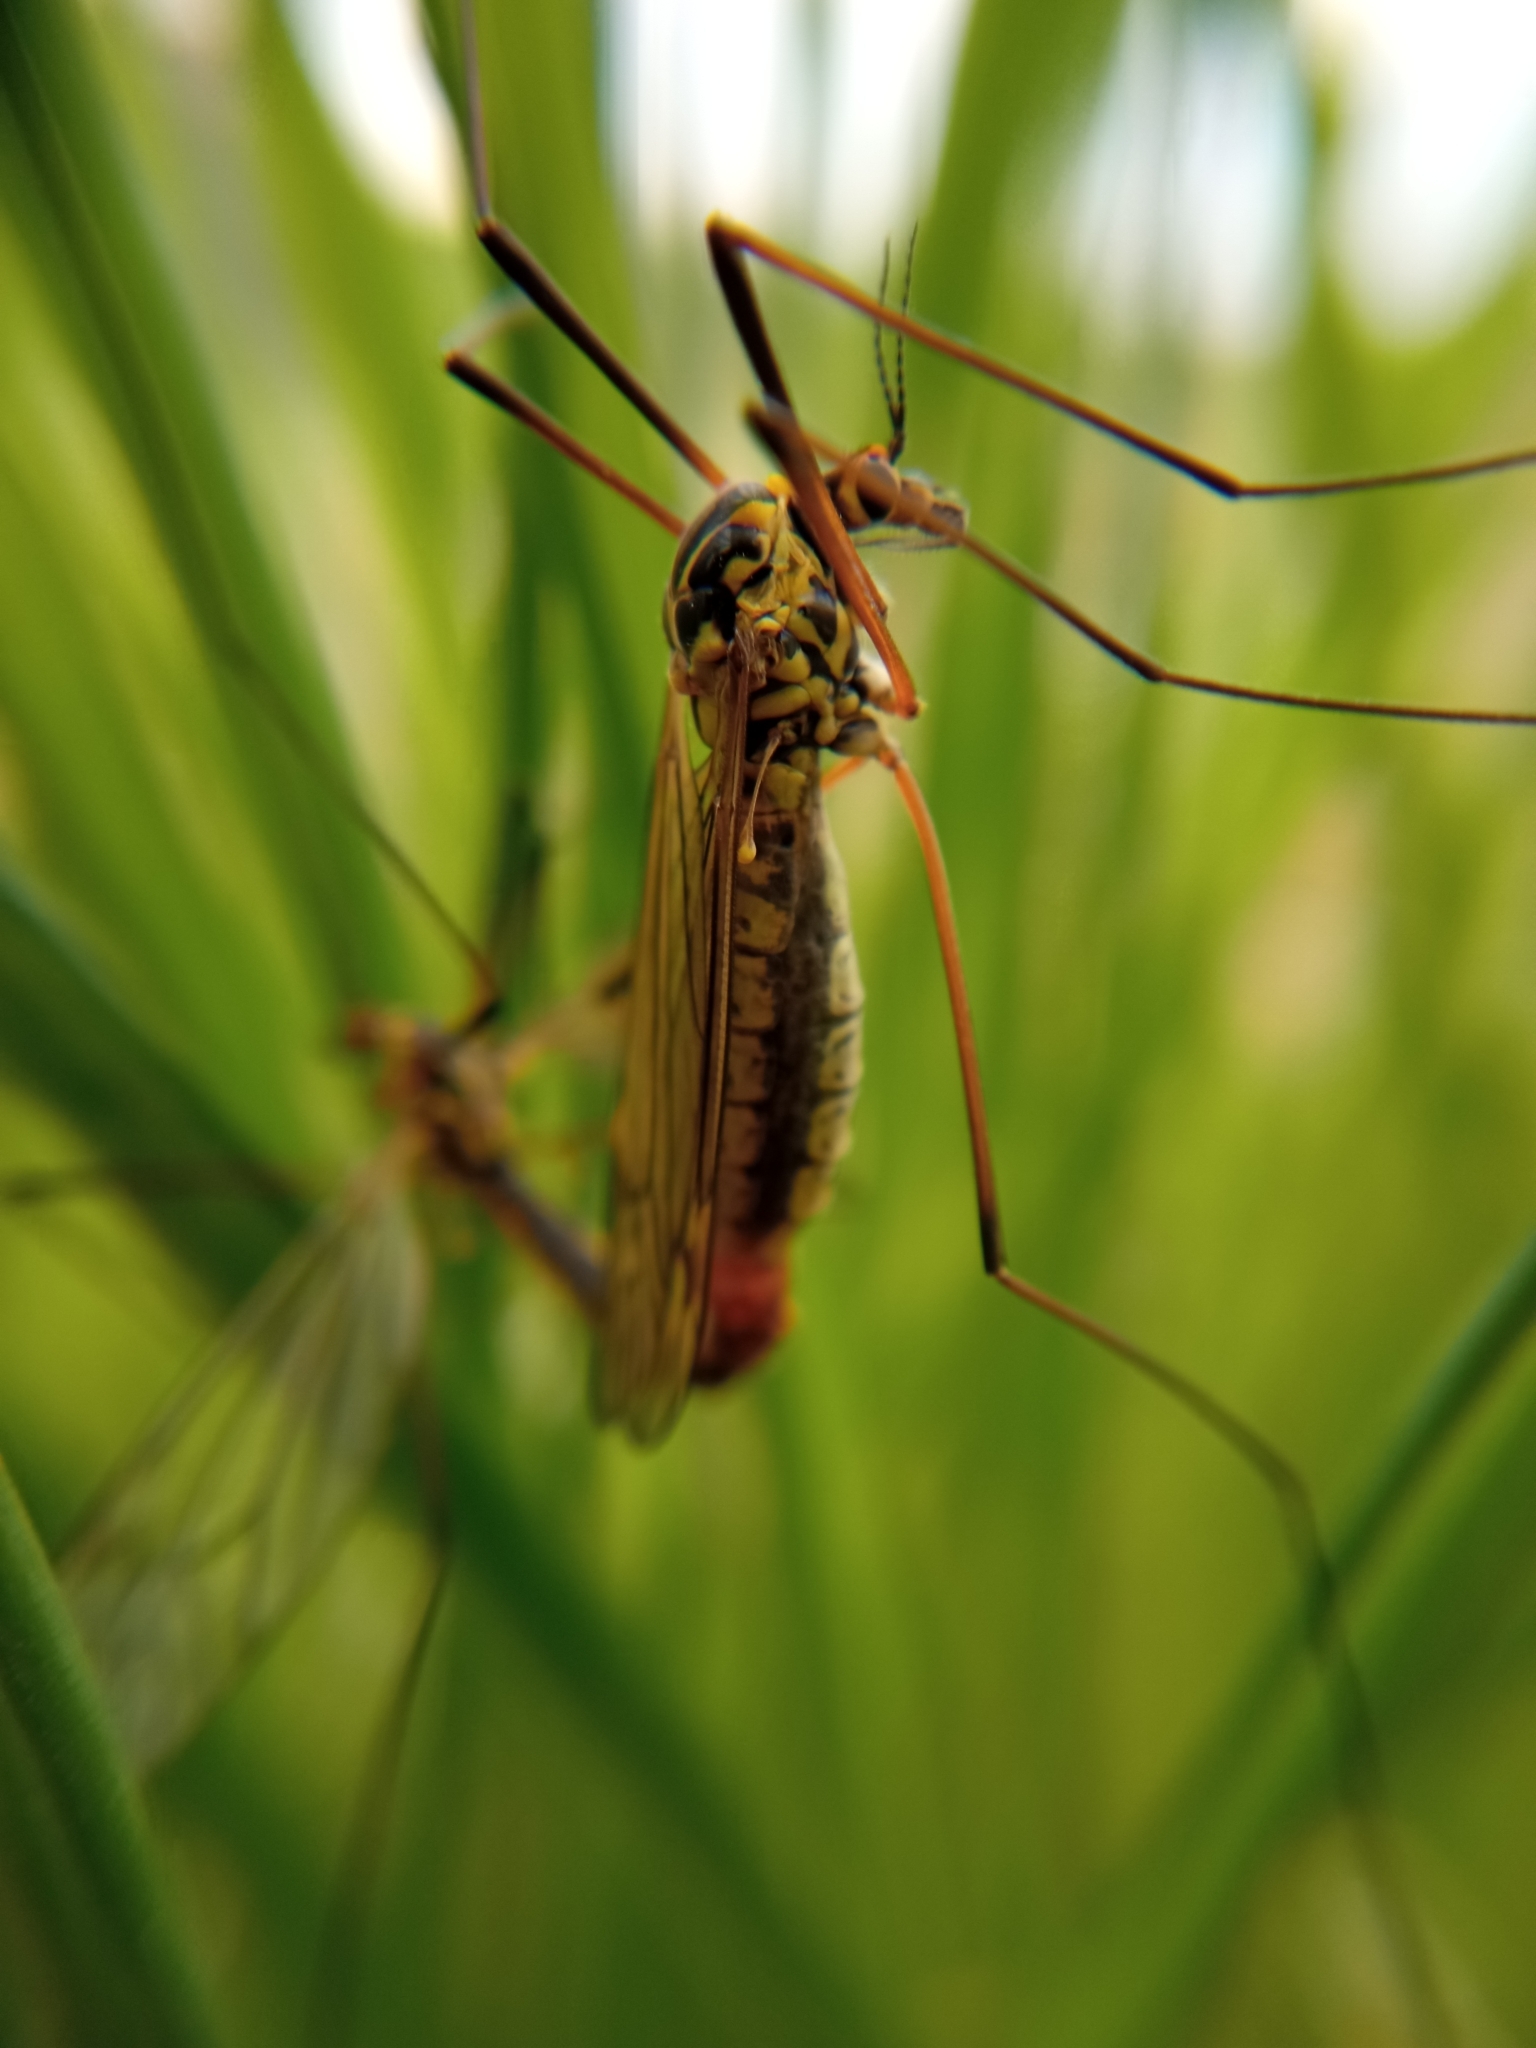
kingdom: Animalia
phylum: Arthropoda
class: Insecta
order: Diptera
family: Tipulidae
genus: Nephrotoma
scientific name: Nephrotoma appendiculata
